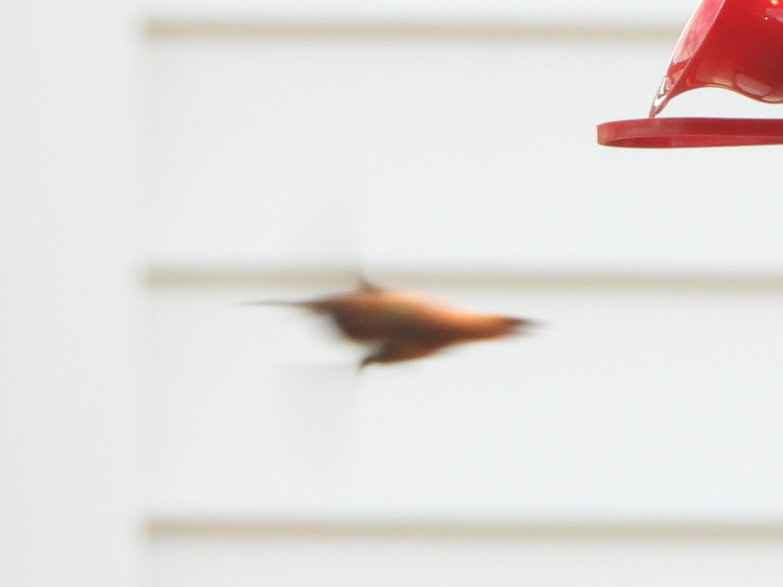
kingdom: Animalia
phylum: Chordata
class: Aves
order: Apodiformes
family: Trochilidae
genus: Selasphorus
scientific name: Selasphorus rufus
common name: Rufous hummingbird
